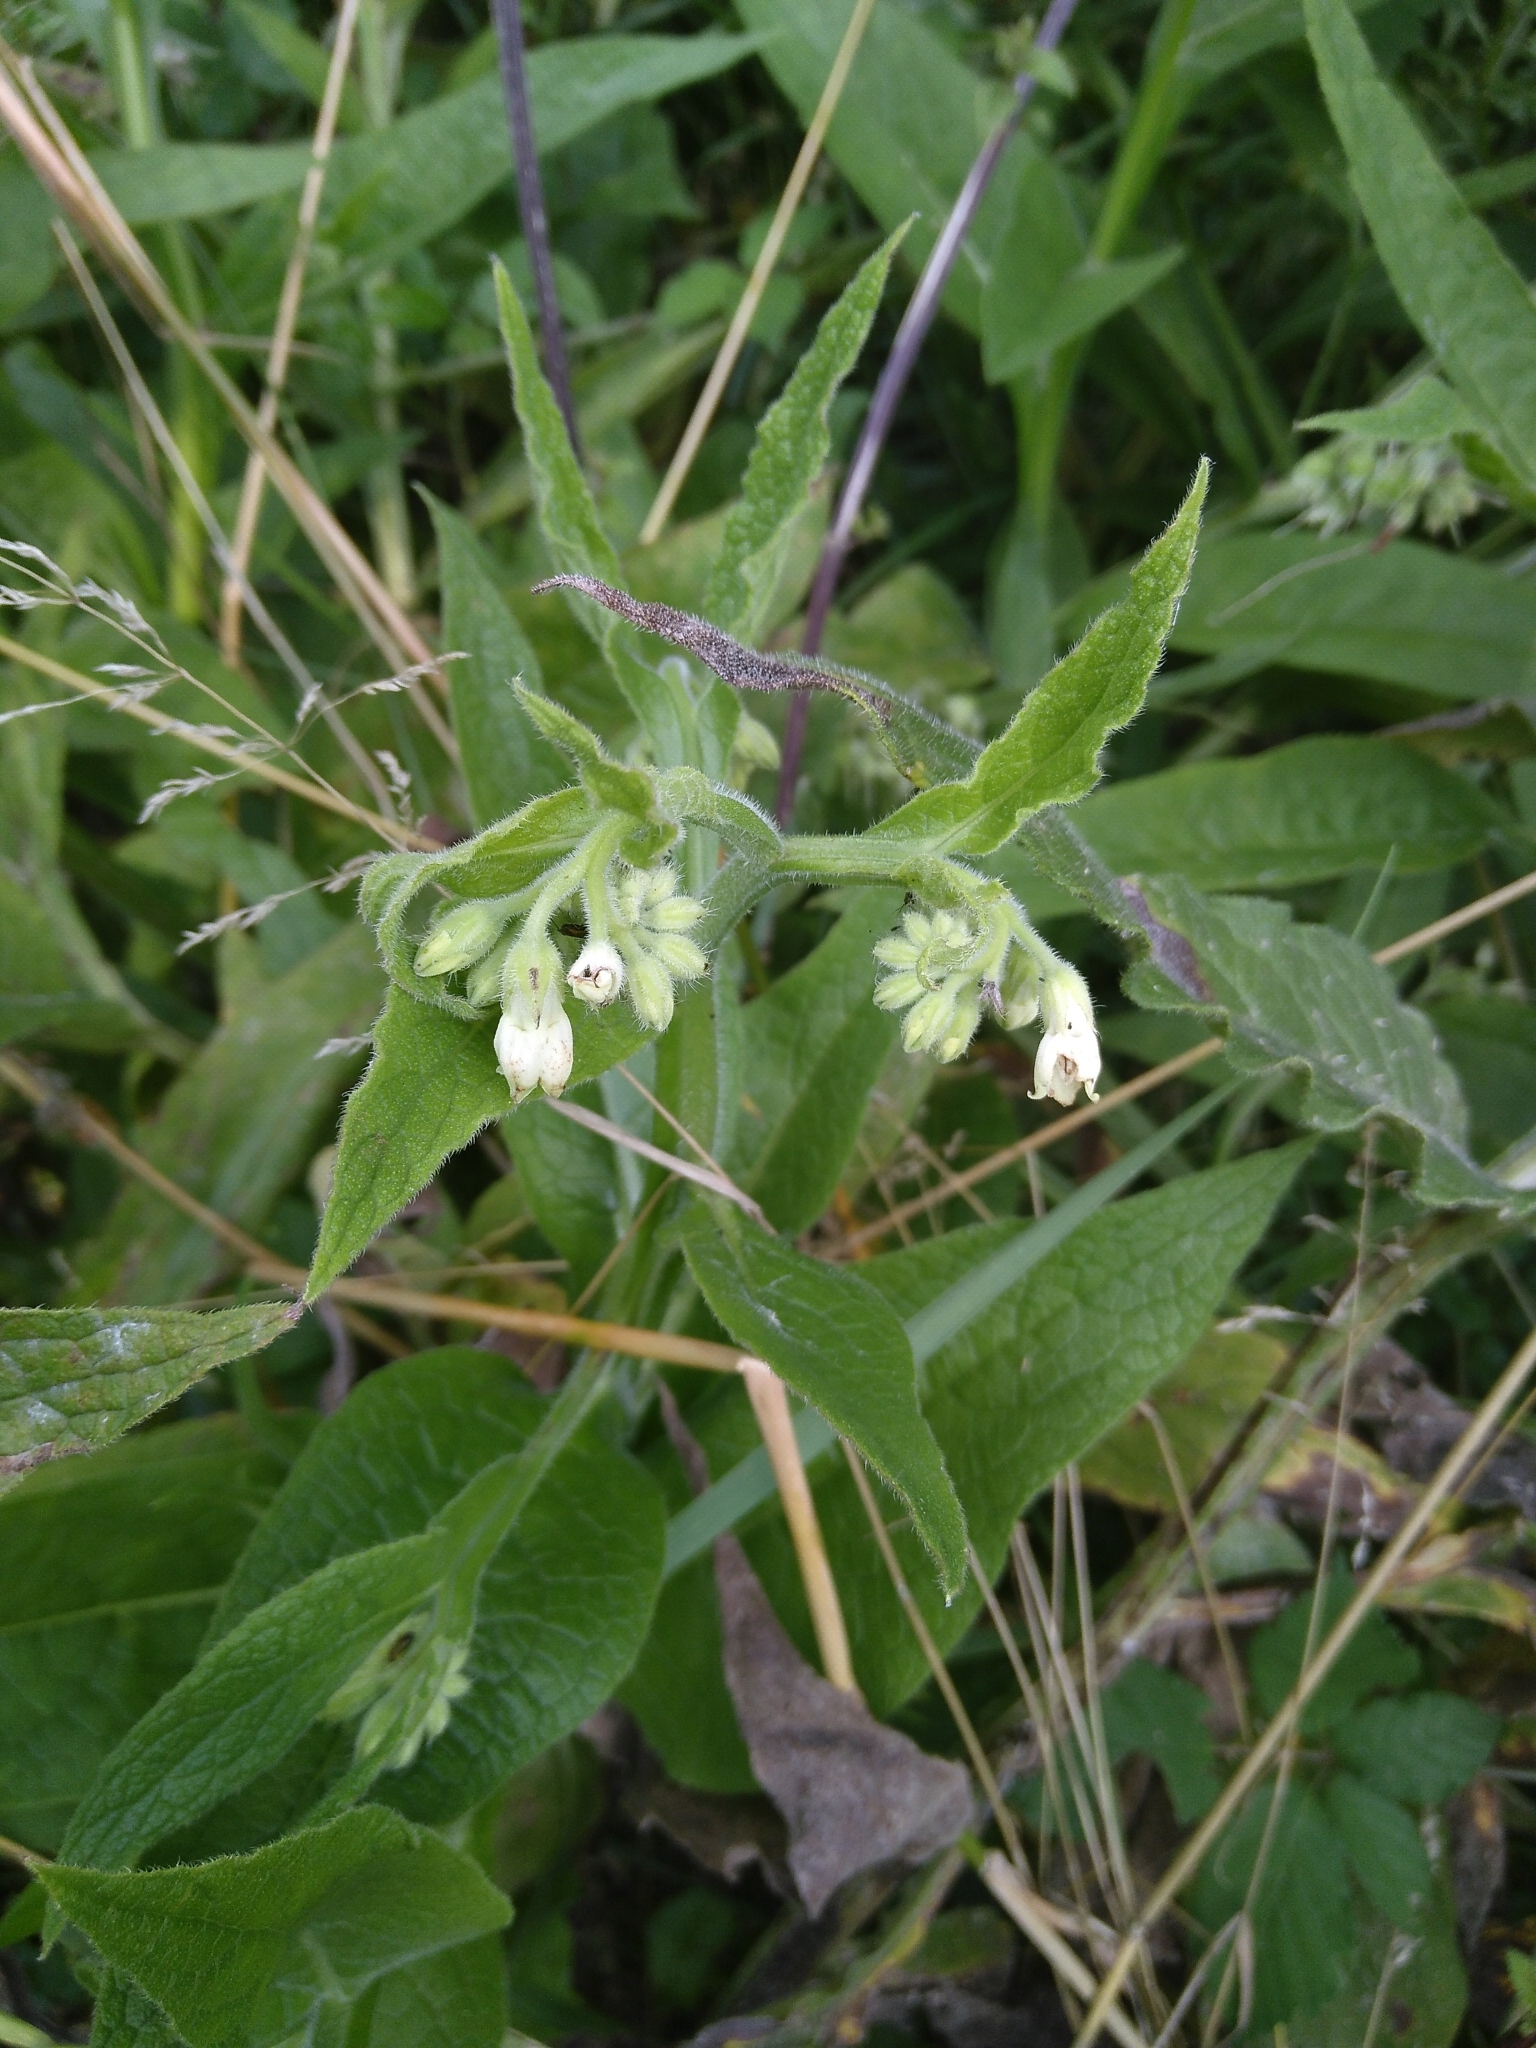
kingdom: Plantae
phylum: Tracheophyta
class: Magnoliopsida
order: Boraginales
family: Boraginaceae
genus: Symphytum
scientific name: Symphytum officinale
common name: Common comfrey
